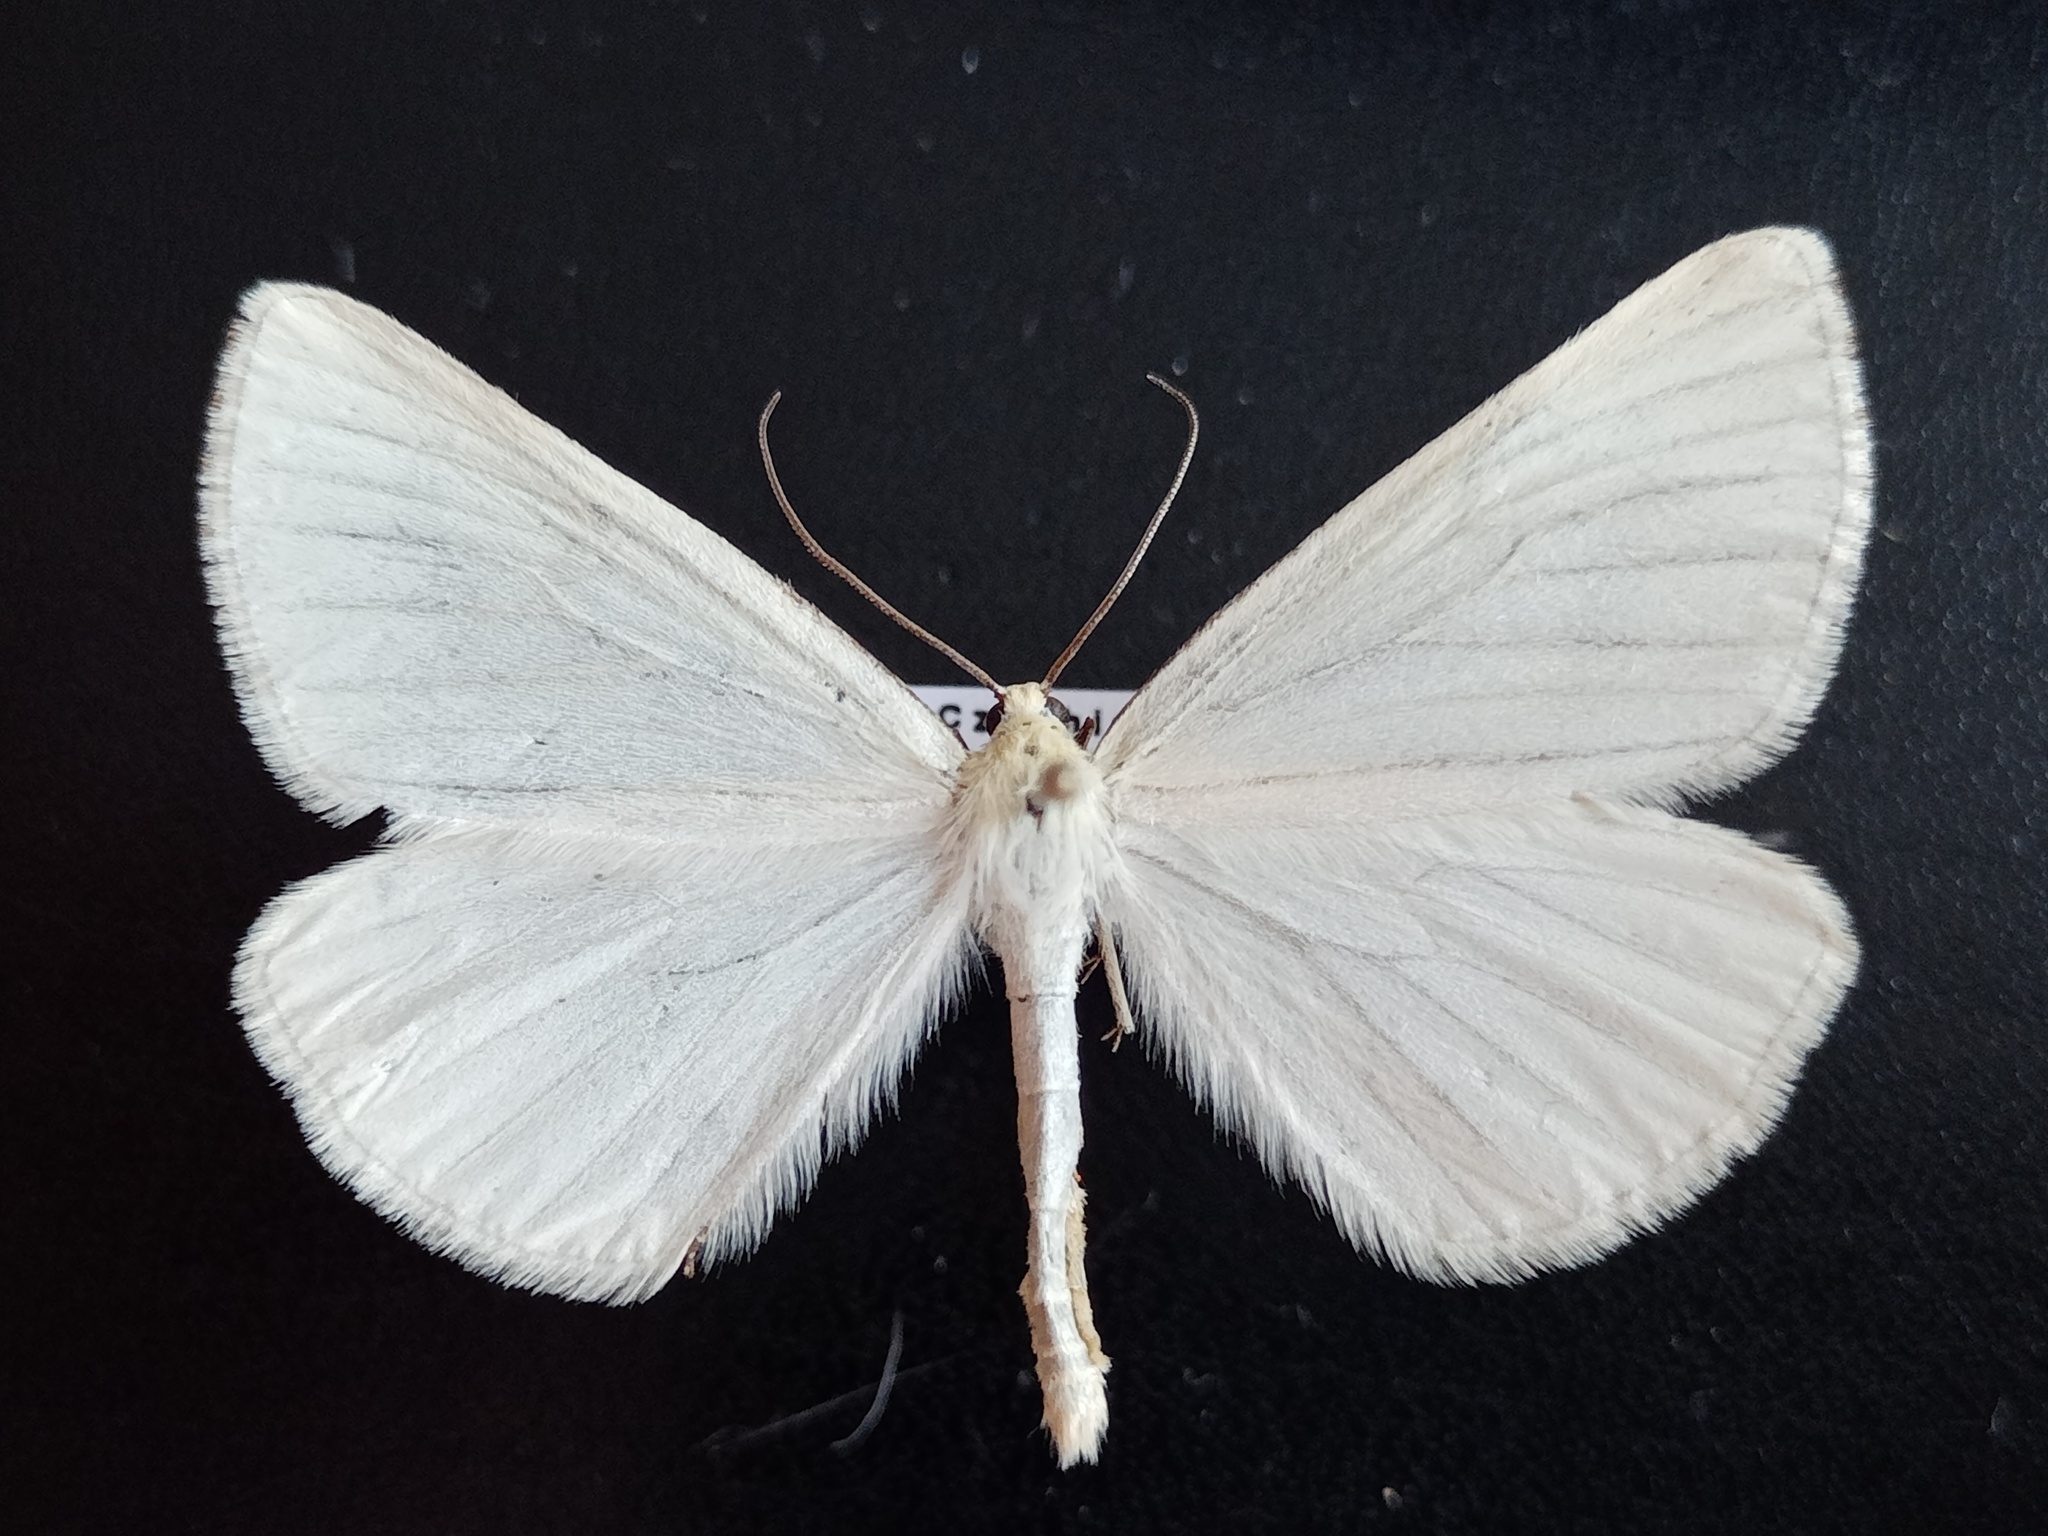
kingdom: Animalia
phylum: Arthropoda
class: Insecta
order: Lepidoptera
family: Geometridae
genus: Siona
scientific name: Siona lineata
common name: Black-veined moth
